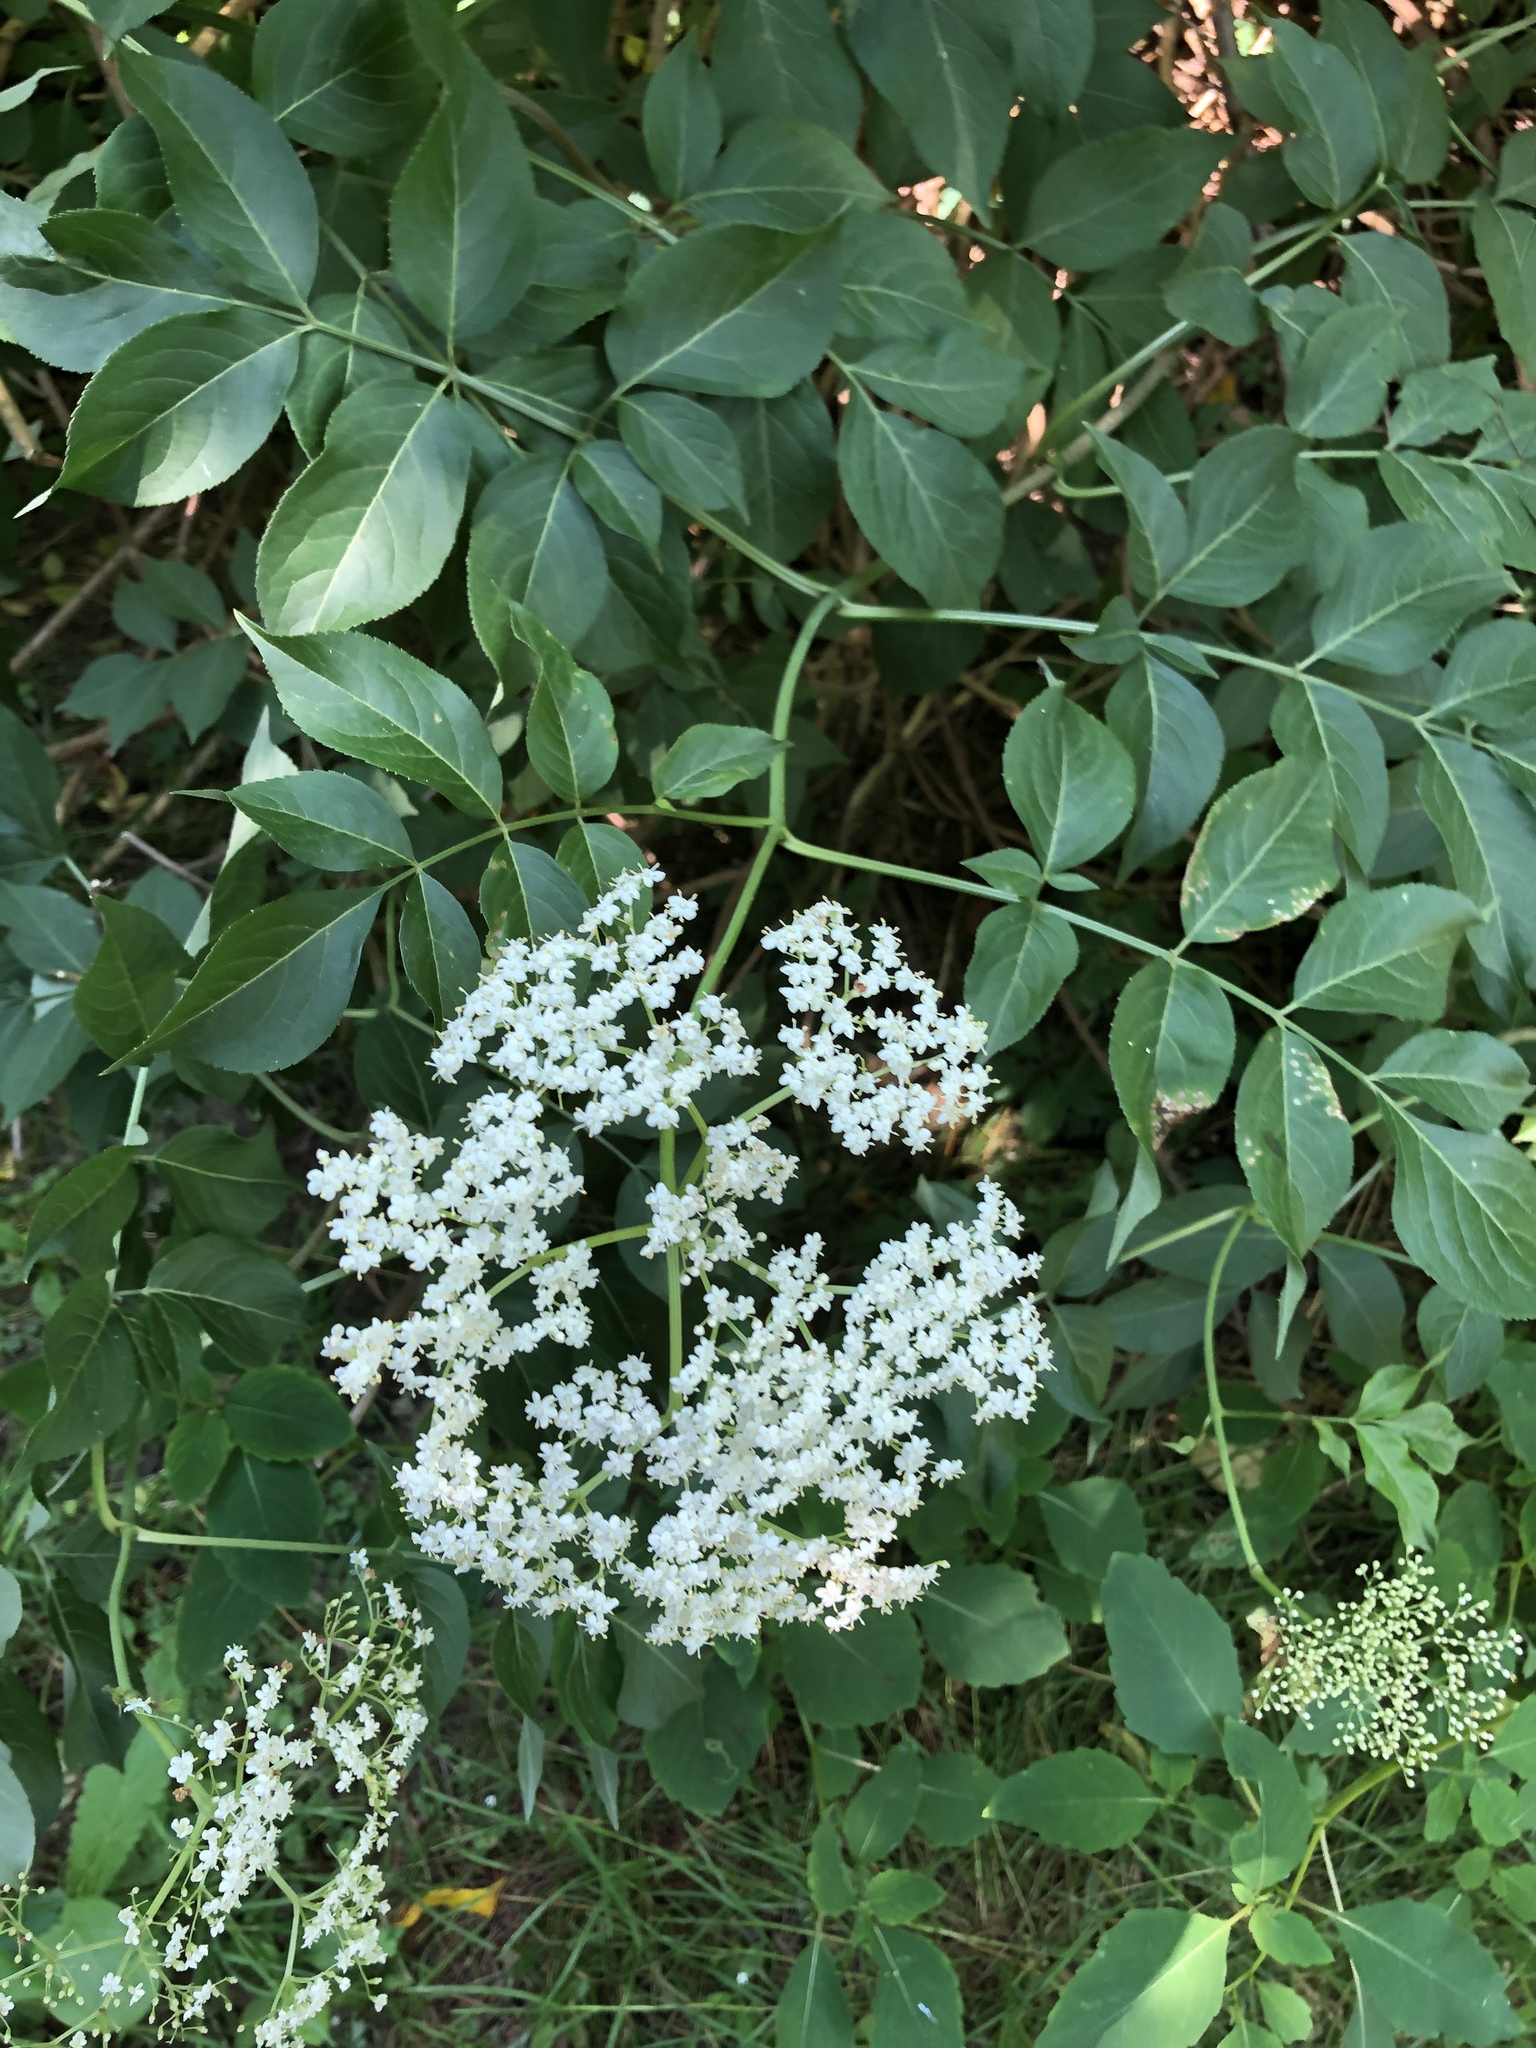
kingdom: Plantae
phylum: Tracheophyta
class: Magnoliopsida
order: Dipsacales
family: Viburnaceae
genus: Sambucus
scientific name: Sambucus canadensis
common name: American elder
